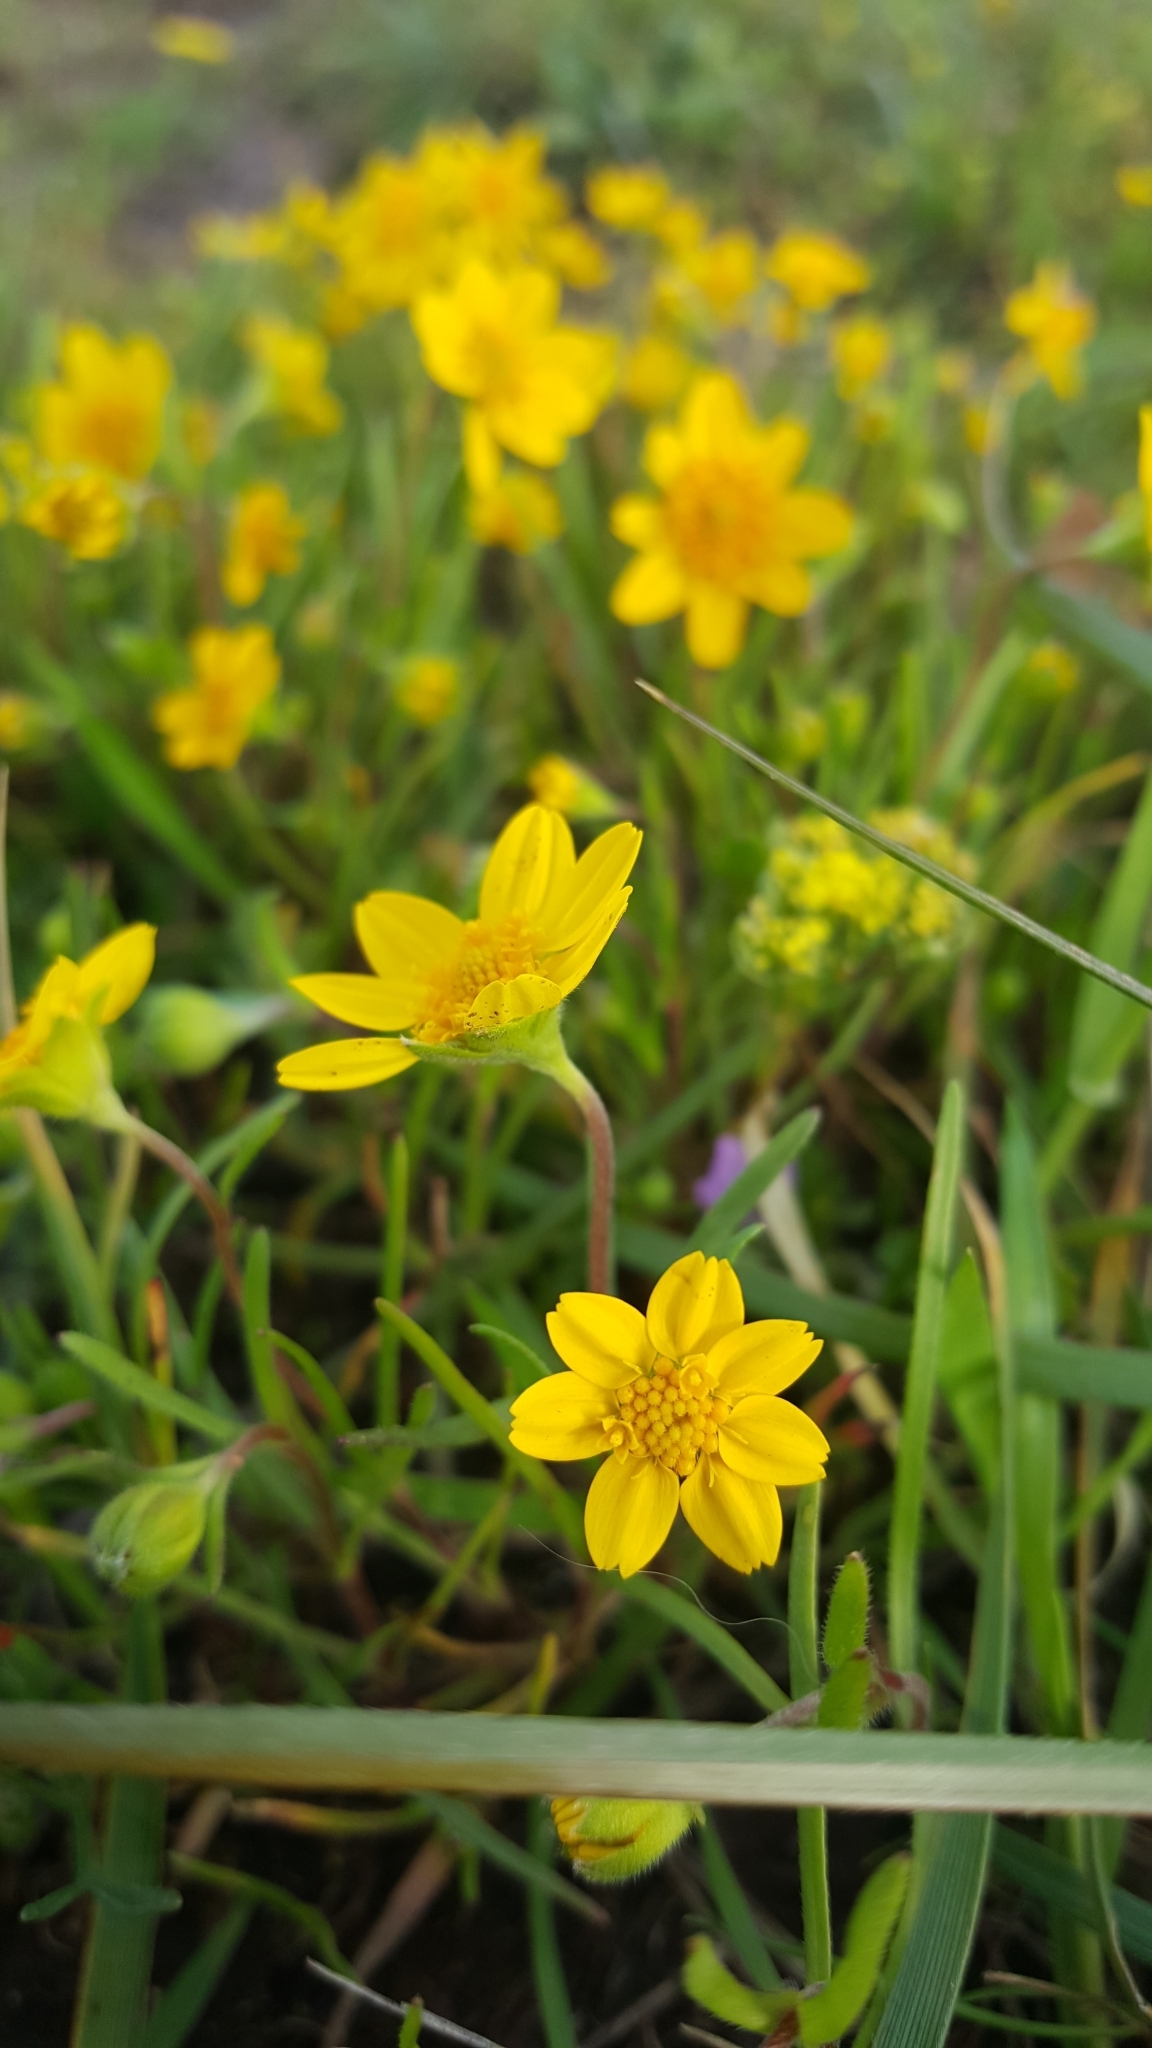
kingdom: Plantae
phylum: Tracheophyta
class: Magnoliopsida
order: Asterales
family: Asteraceae
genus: Lasthenia
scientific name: Lasthenia californica
